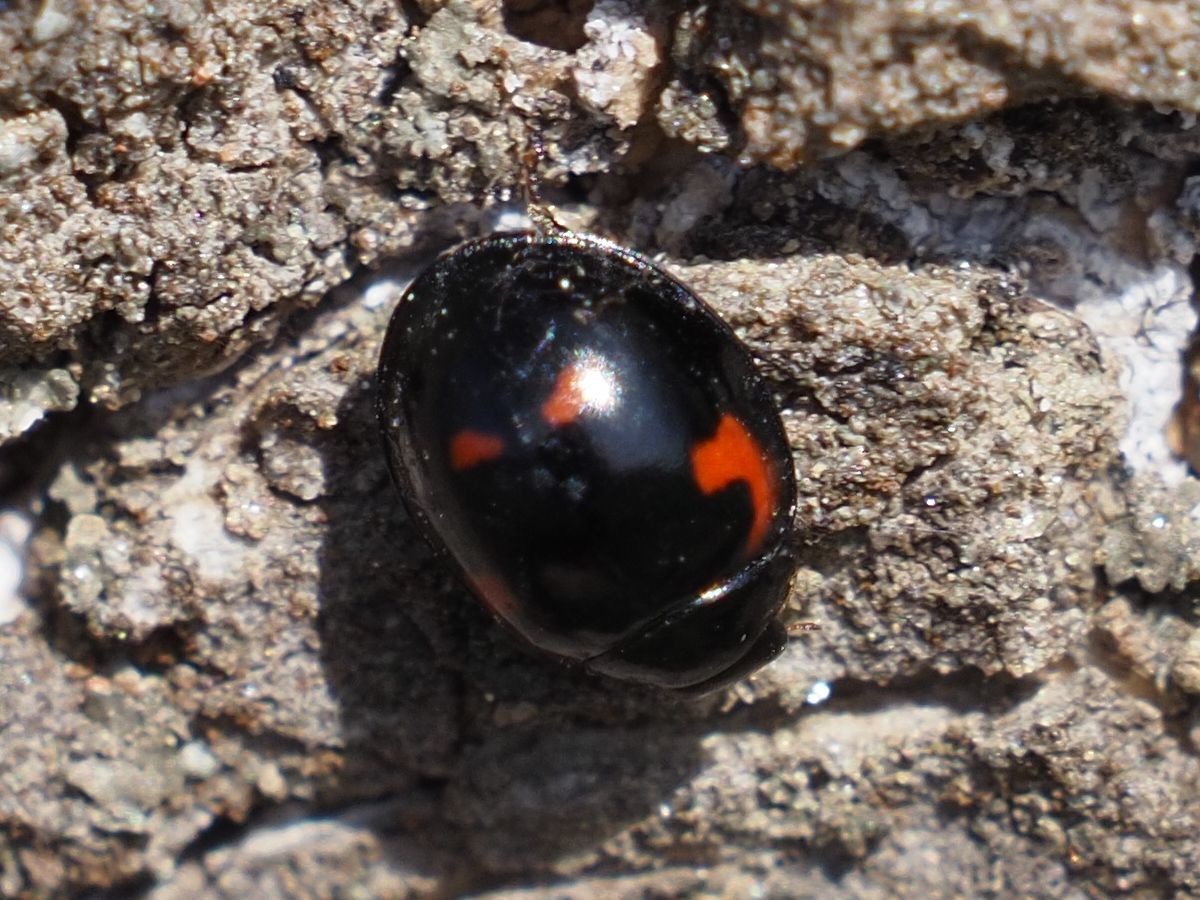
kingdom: Animalia
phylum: Arthropoda
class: Insecta
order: Coleoptera
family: Coccinellidae
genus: Brumus
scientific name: Brumus quadripustulatus
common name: Ladybird beetle
